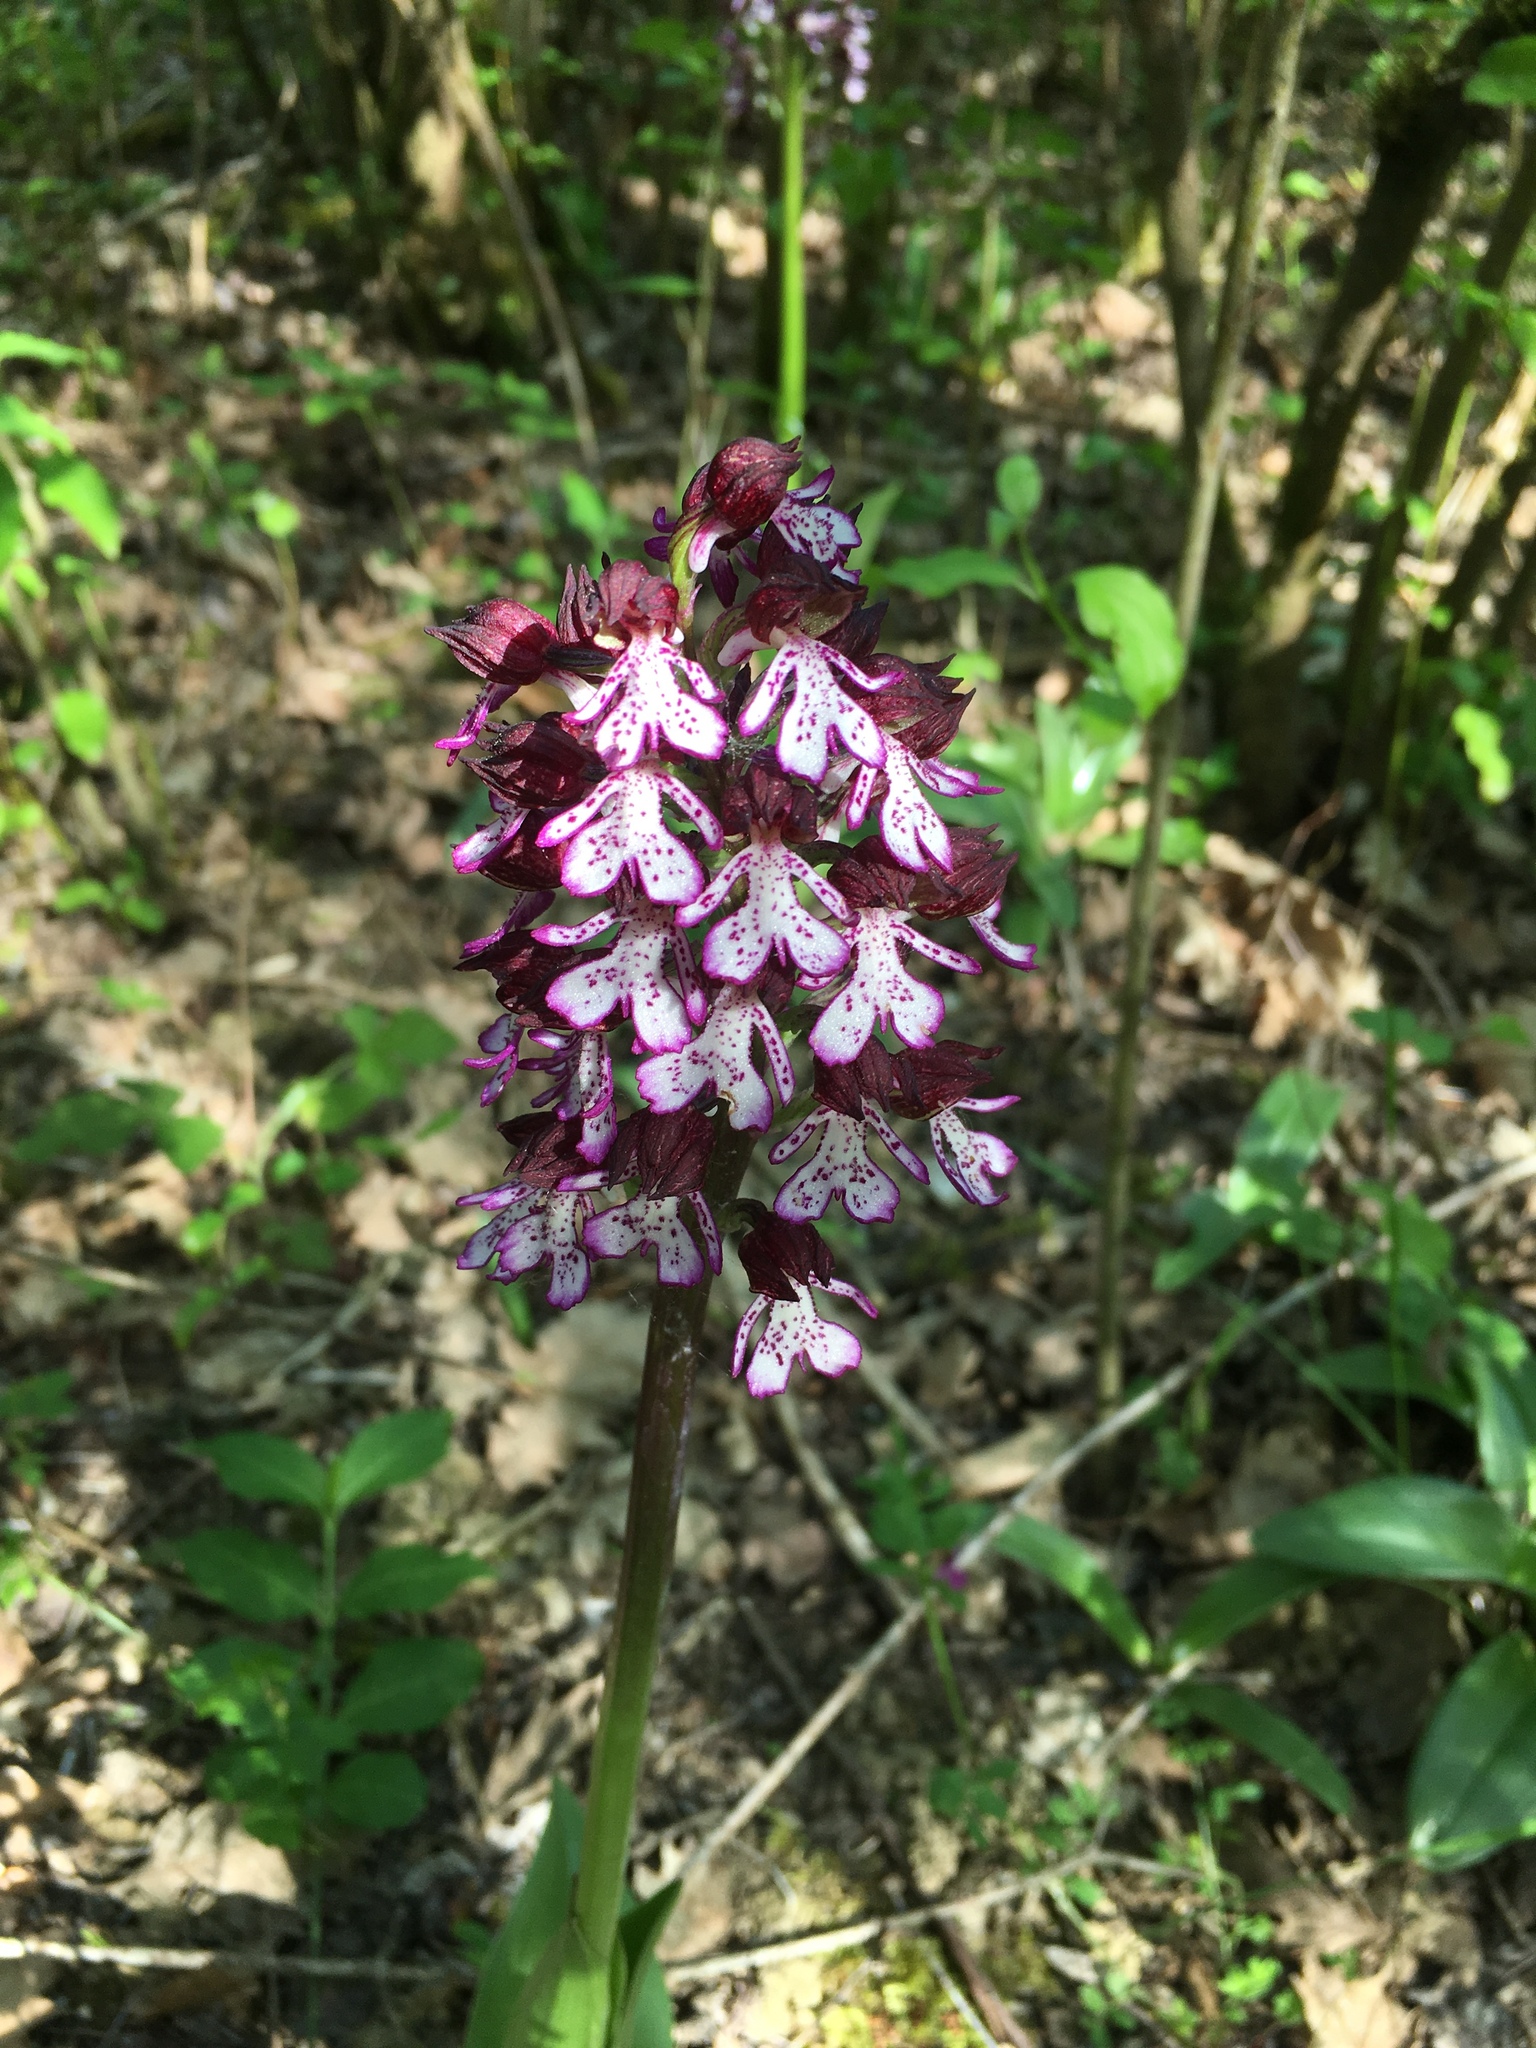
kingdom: Plantae
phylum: Tracheophyta
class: Liliopsida
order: Asparagales
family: Orchidaceae
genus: Orchis
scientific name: Orchis purpurea
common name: Lady orchid
